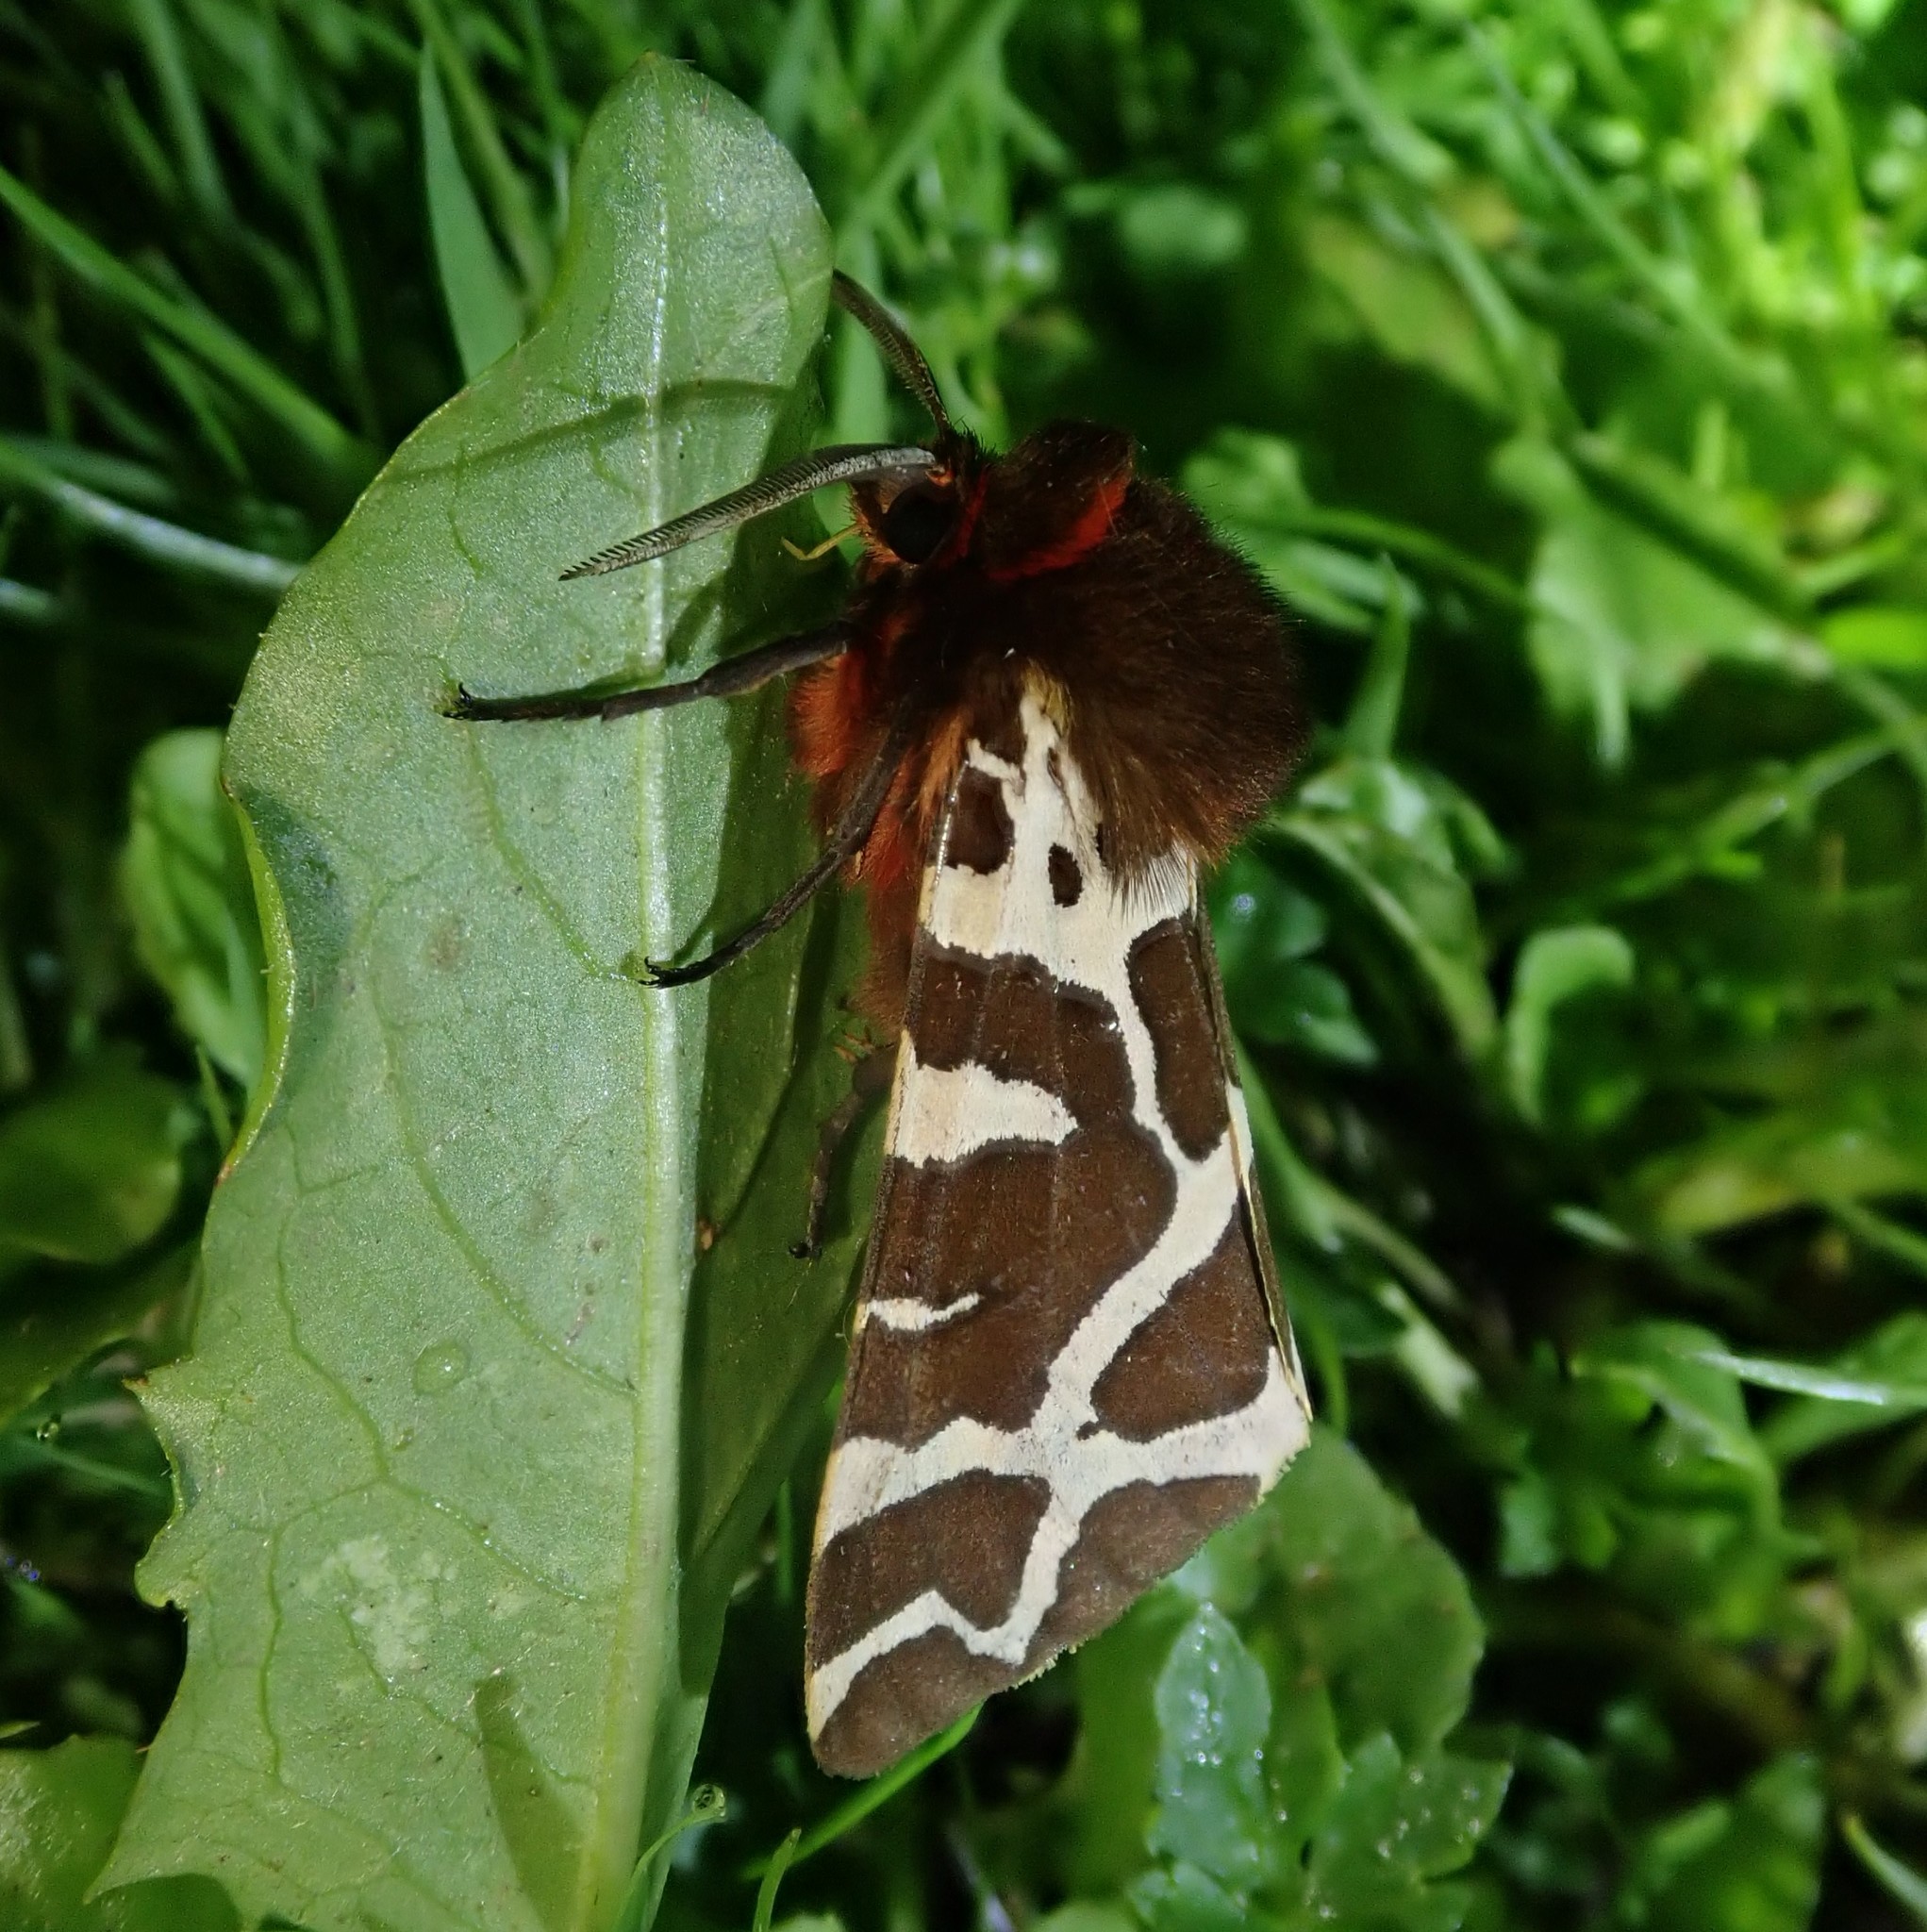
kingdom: Animalia
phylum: Arthropoda
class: Insecta
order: Lepidoptera
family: Erebidae
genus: Arctia
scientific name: Arctia caja
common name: Garden tiger
